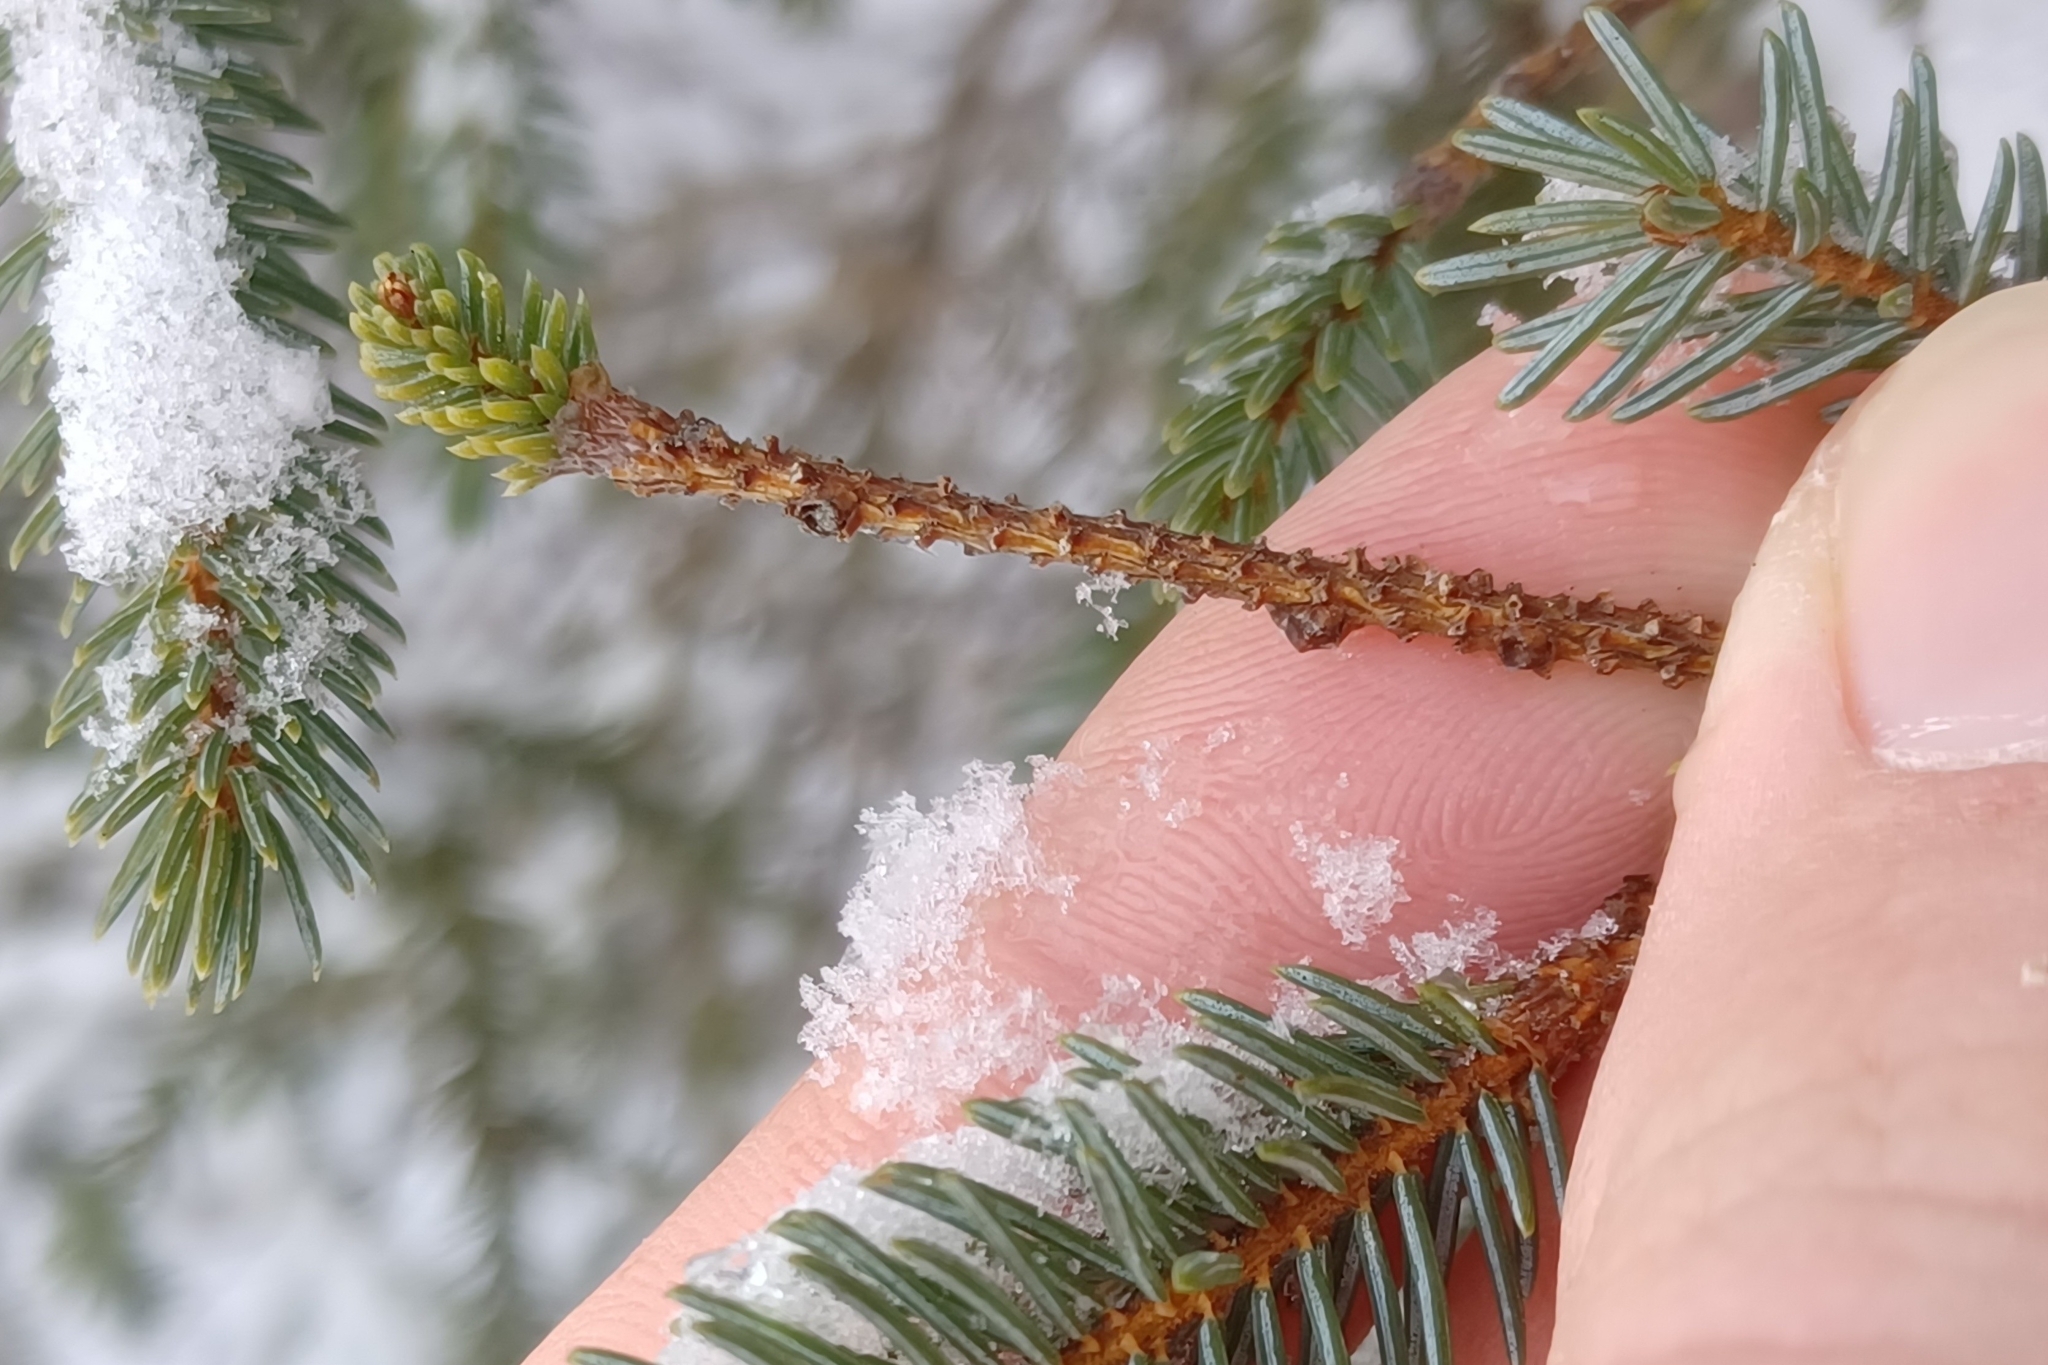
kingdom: Plantae
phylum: Tracheophyta
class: Pinopsida
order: Pinales
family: Pinaceae
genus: Picea
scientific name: Picea mariana
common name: Black spruce
